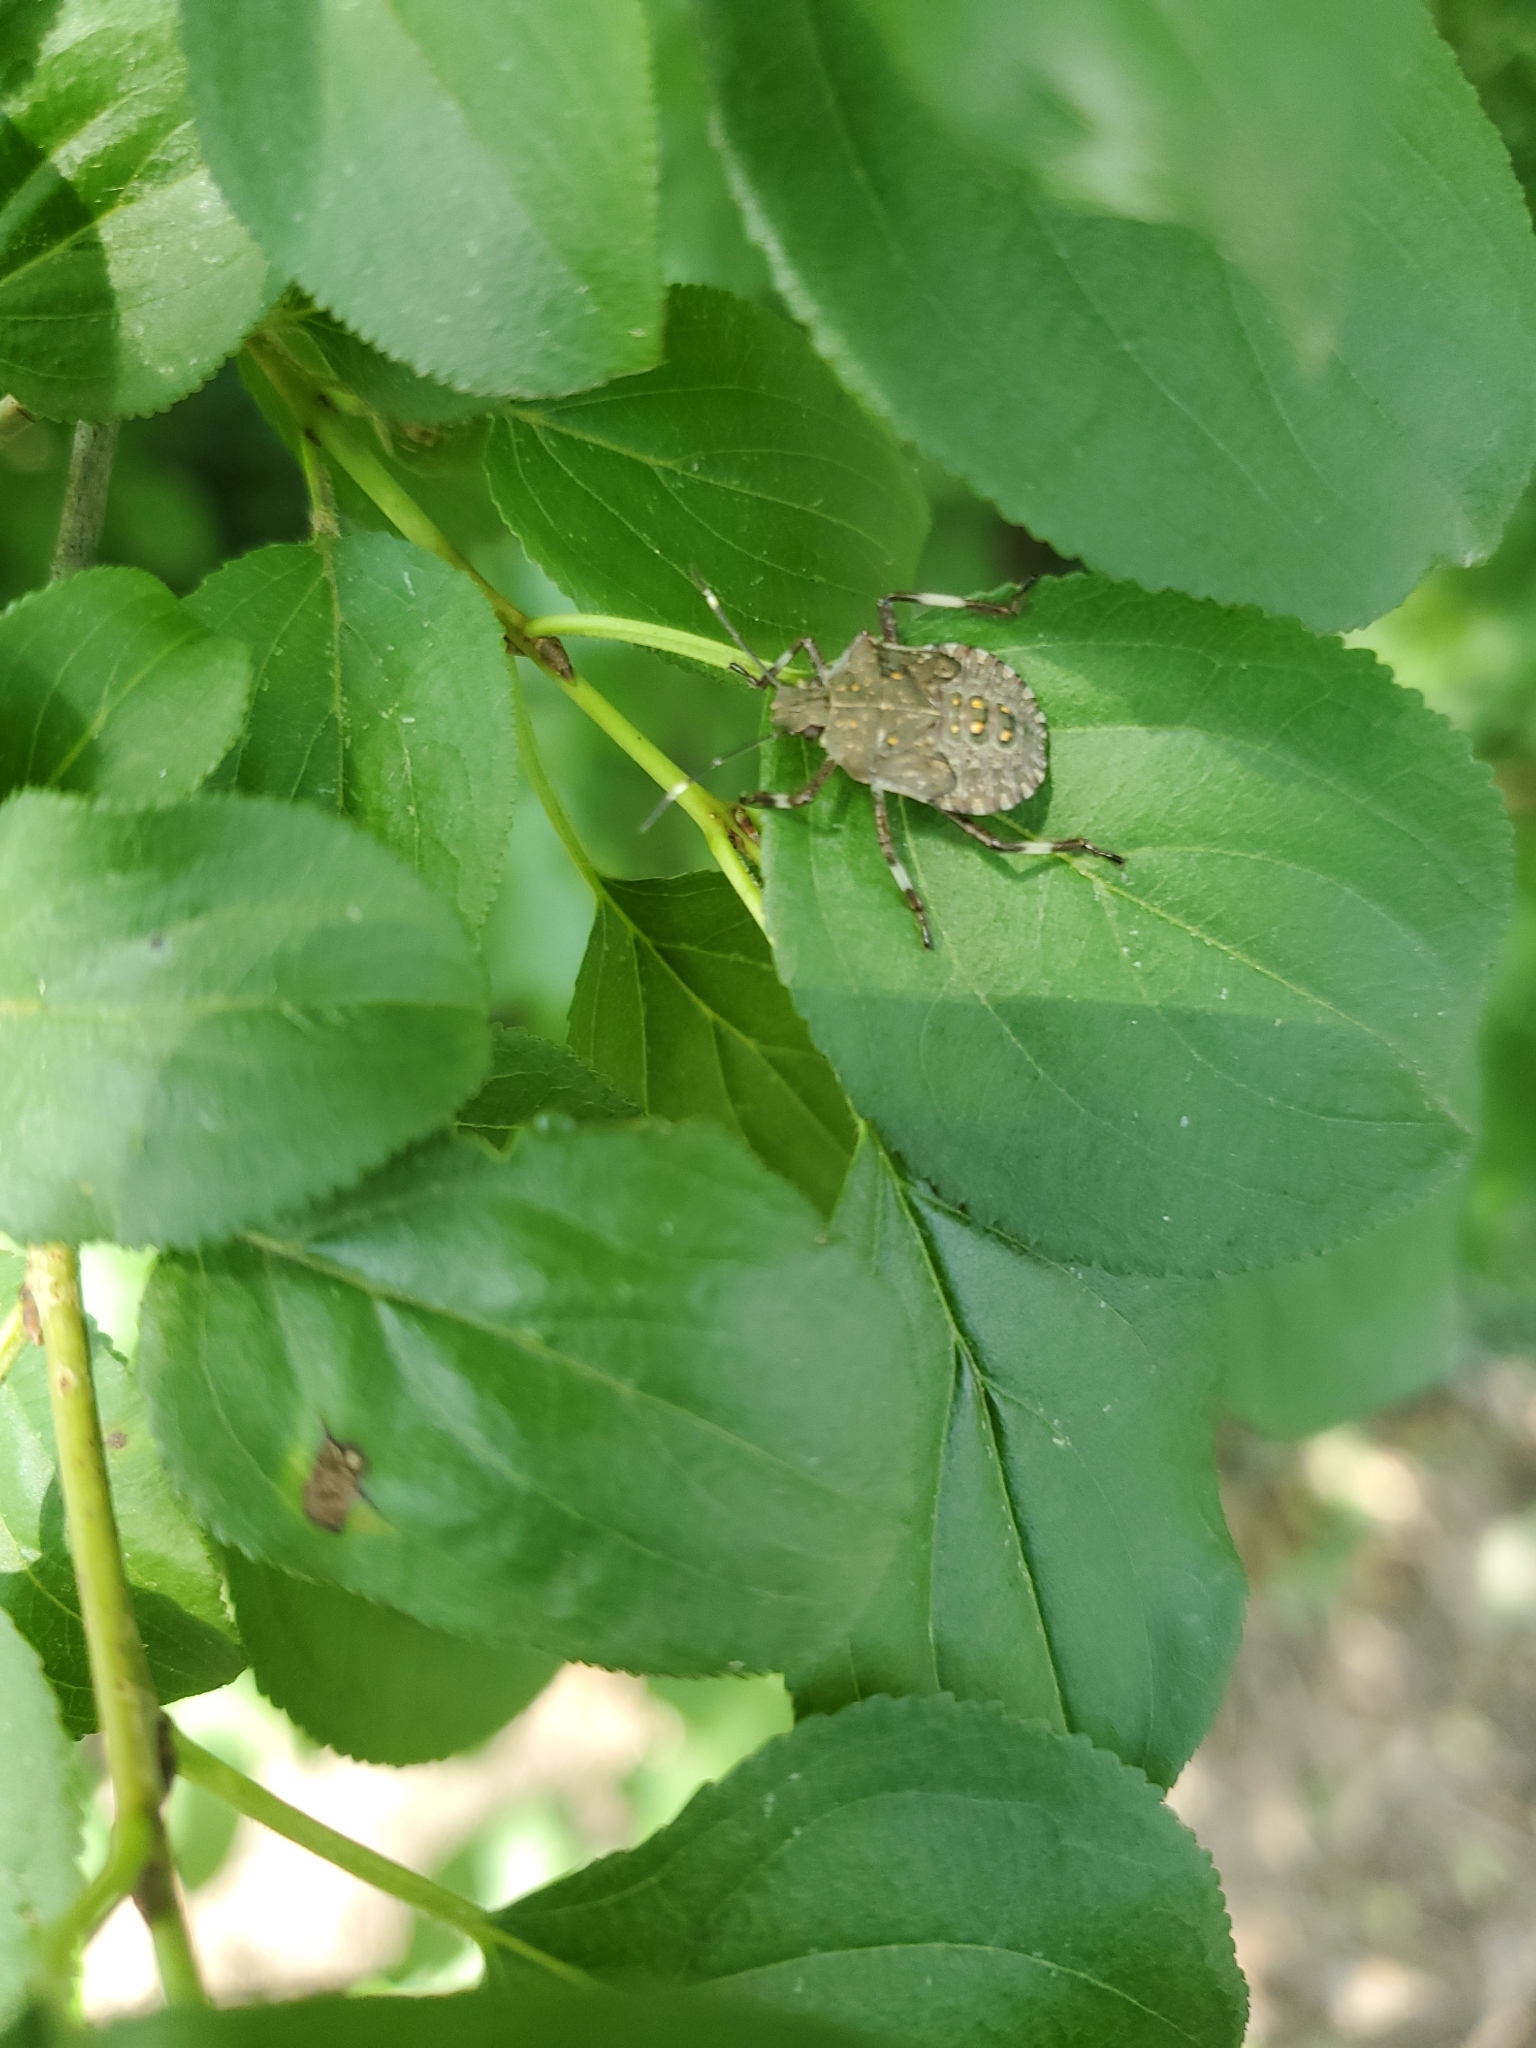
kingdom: Animalia
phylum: Arthropoda
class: Insecta
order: Hemiptera
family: Pentatomidae
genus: Halyomorpha
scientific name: Halyomorpha halys
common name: Brown marmorated stink bug
